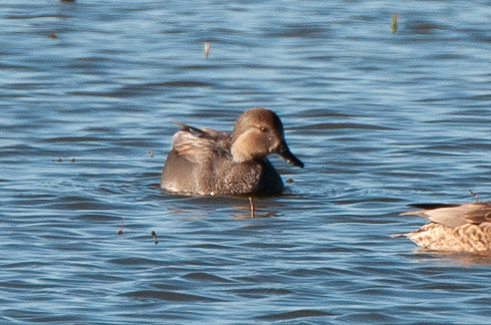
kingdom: Animalia
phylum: Chordata
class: Aves
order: Anseriformes
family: Anatidae
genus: Mareca
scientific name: Mareca strepera
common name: Gadwall
